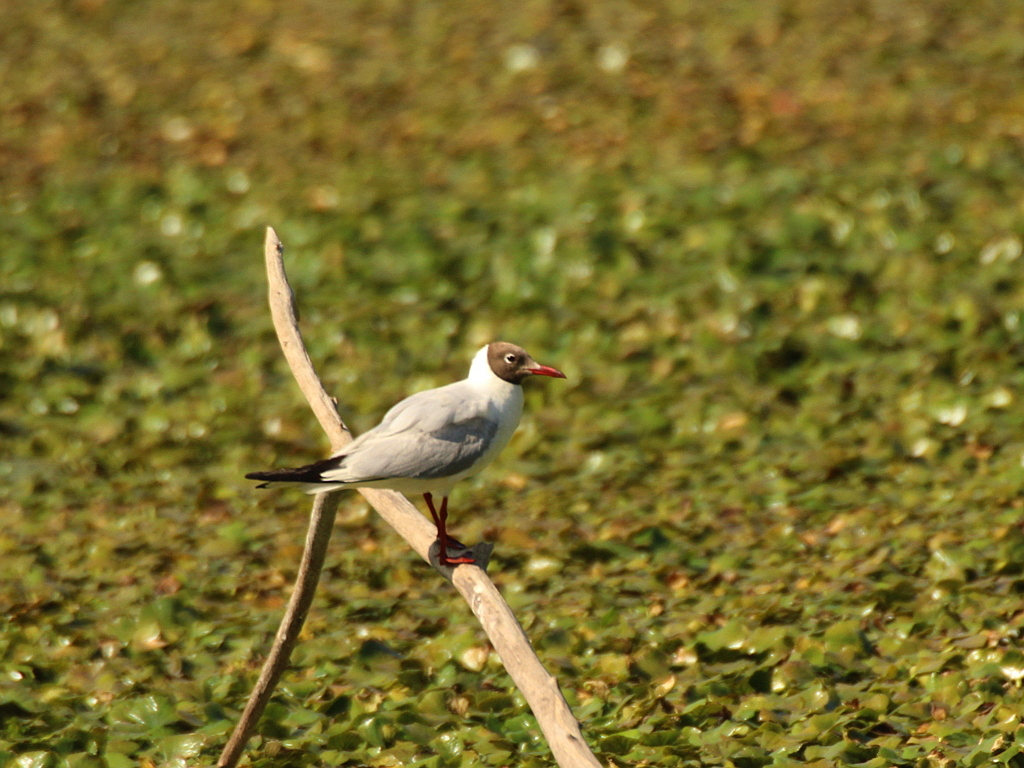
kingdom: Animalia
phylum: Chordata
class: Aves
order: Charadriiformes
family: Laridae
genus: Chroicocephalus
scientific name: Chroicocephalus ridibundus
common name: Black-headed gull
